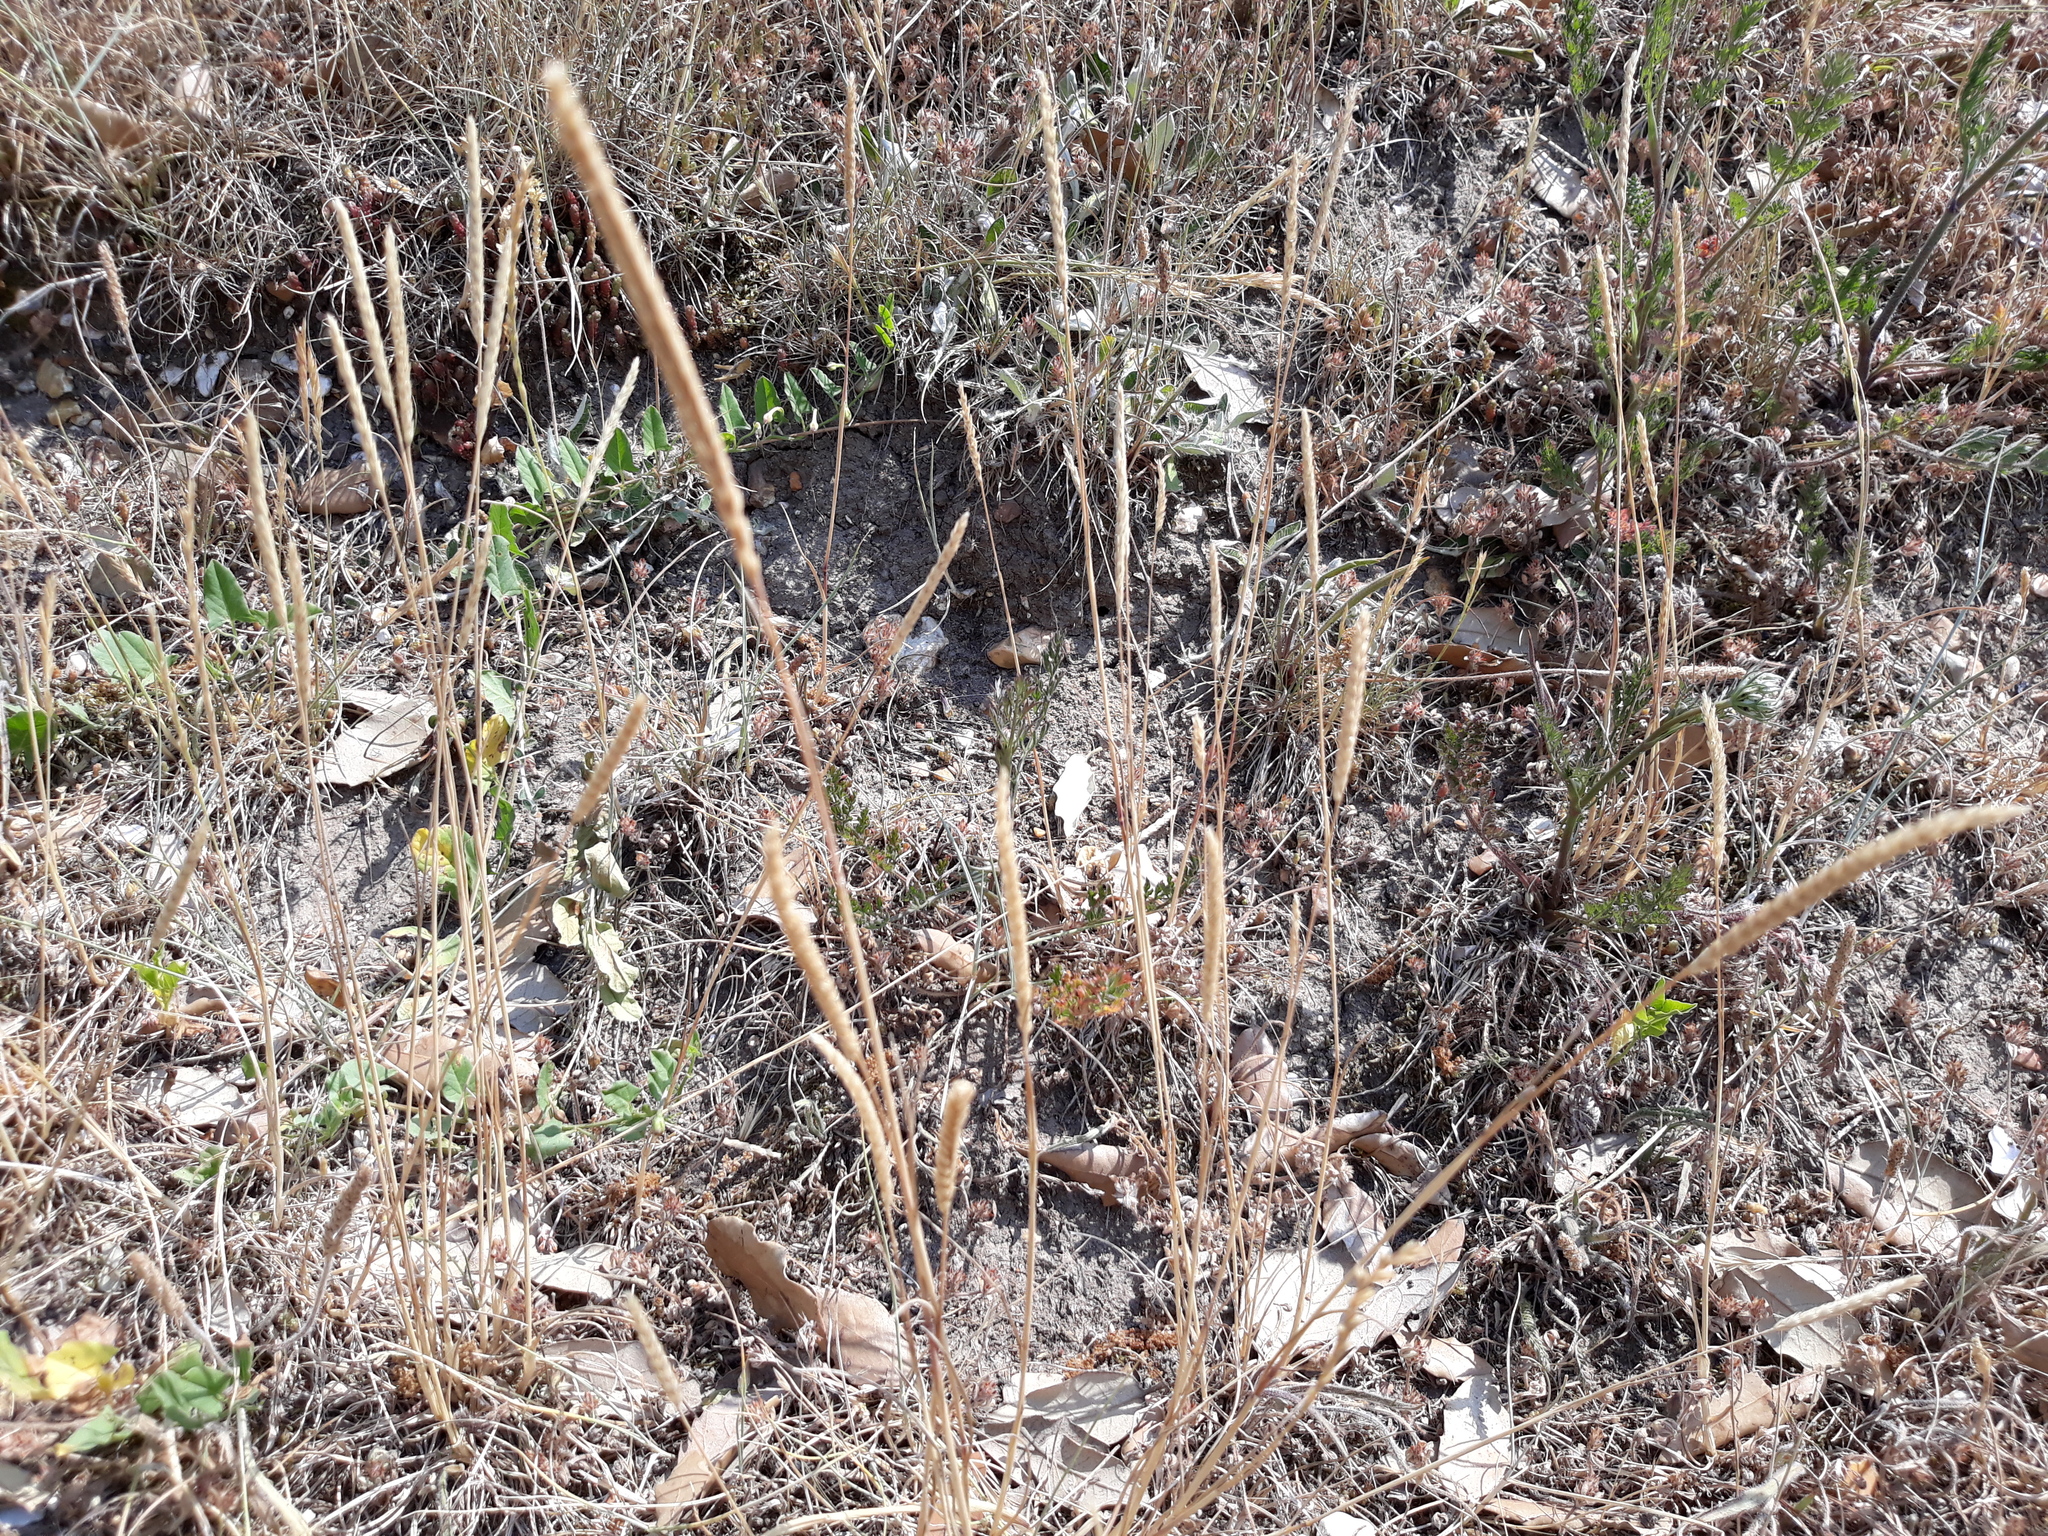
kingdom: Plantae
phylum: Tracheophyta
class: Liliopsida
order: Poales
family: Poaceae
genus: Cynosurus
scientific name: Cynosurus cristatus
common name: Crested dog's-tail
